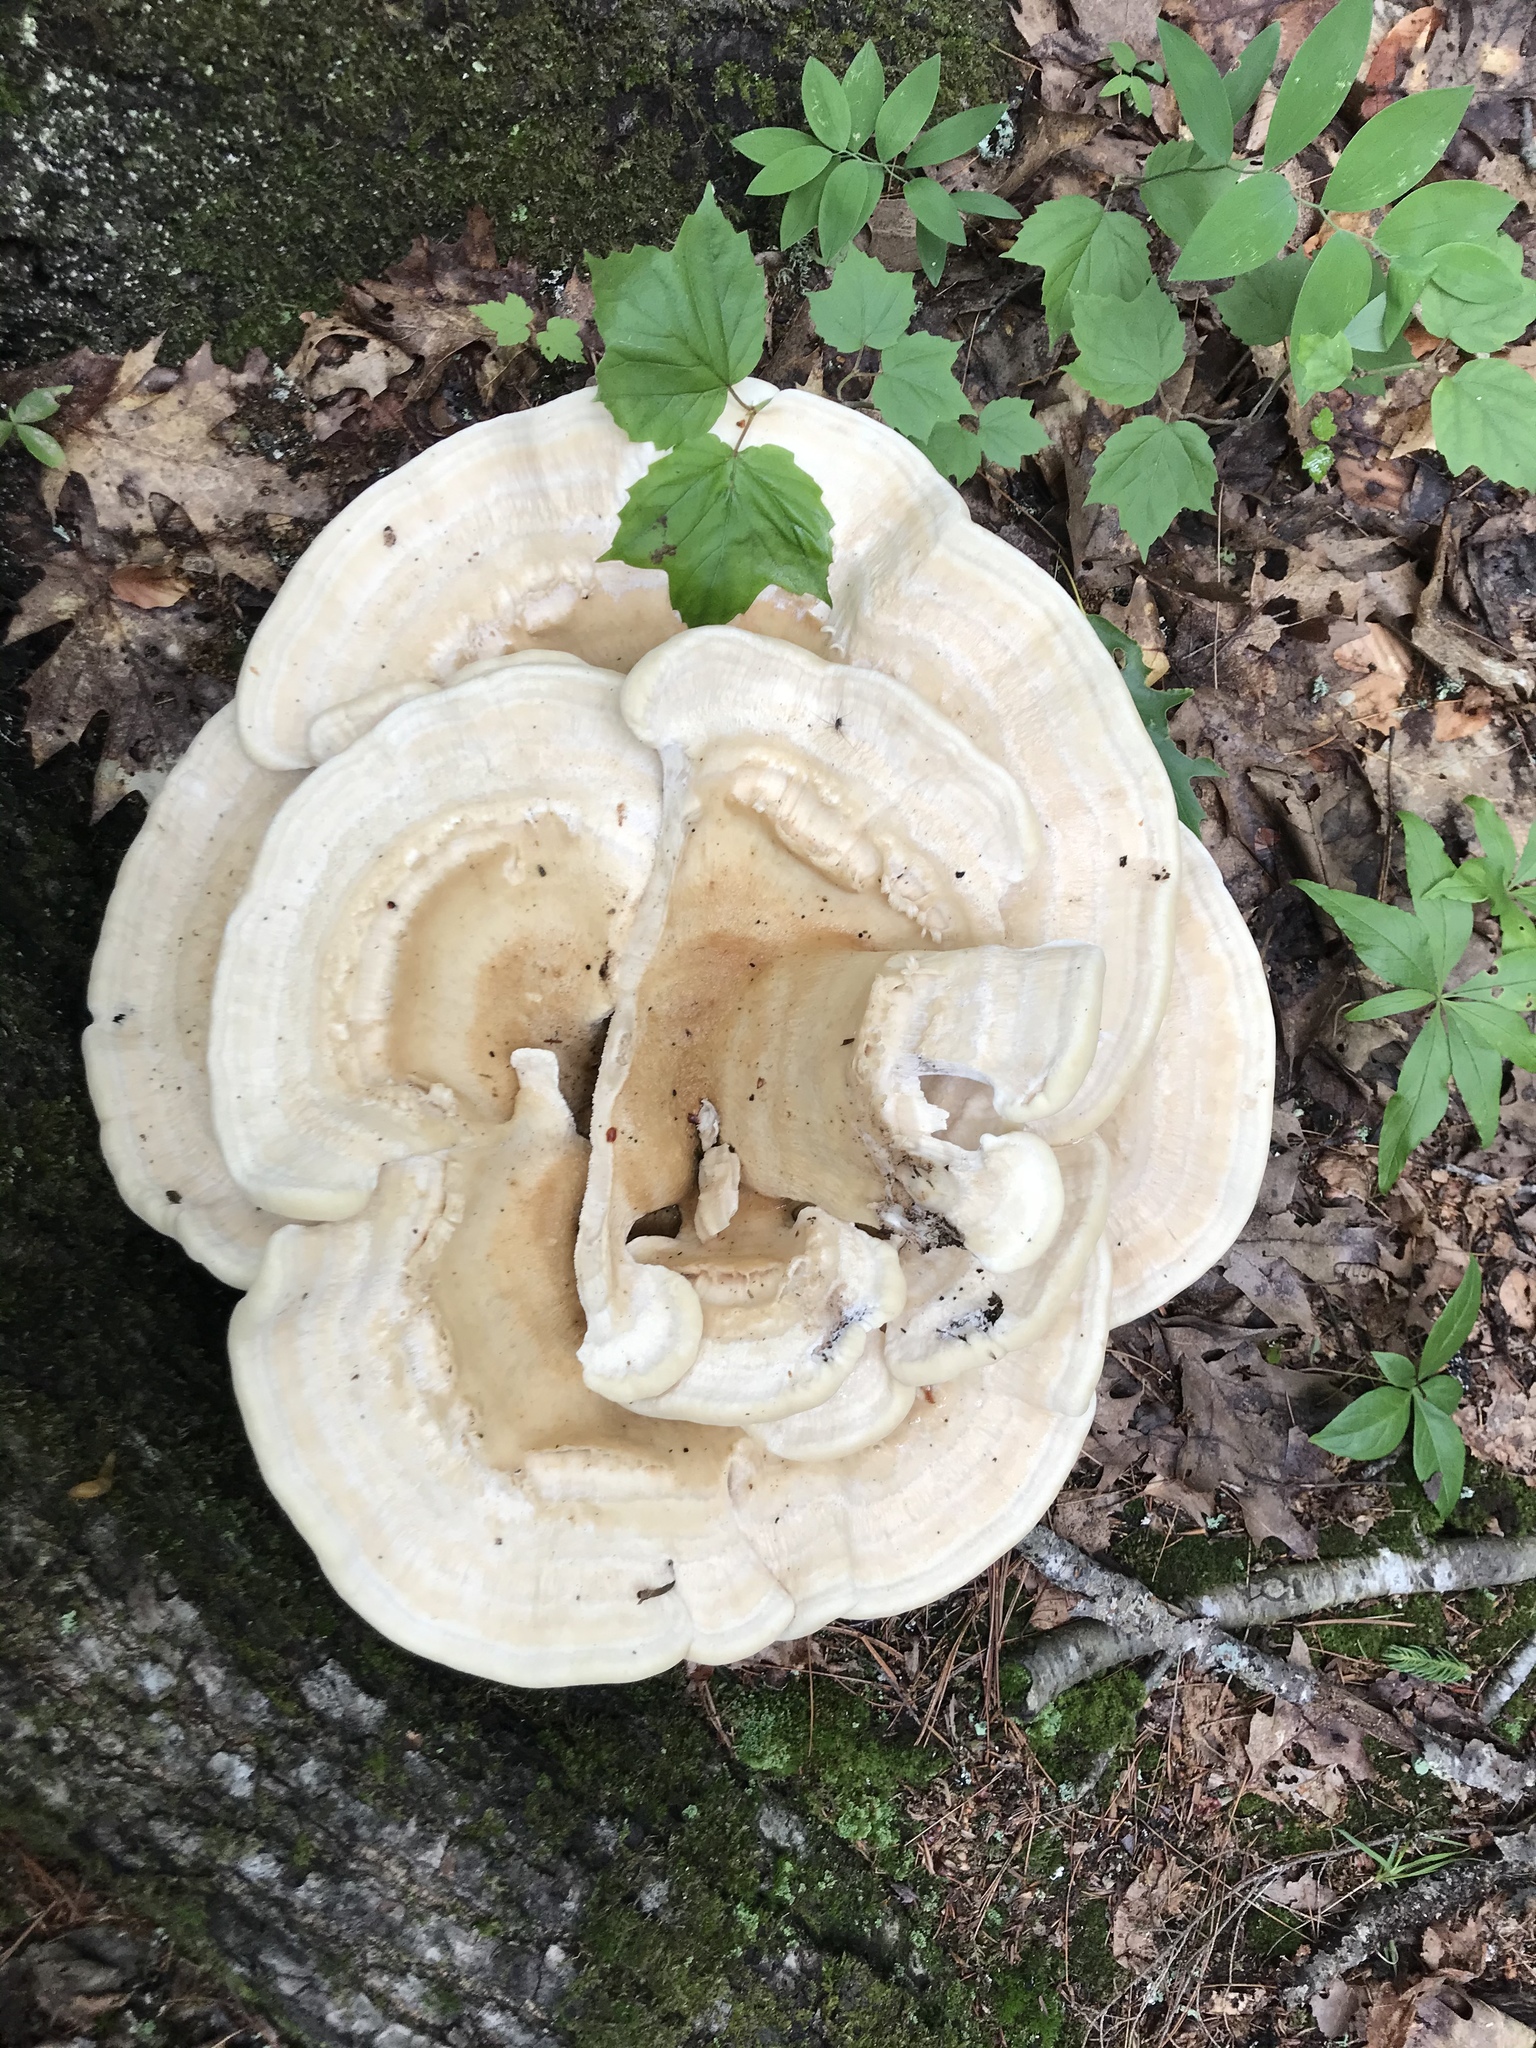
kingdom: Fungi
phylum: Basidiomycota
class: Agaricomycetes
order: Russulales
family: Bondarzewiaceae
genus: Bondarzewia
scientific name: Bondarzewia berkeleyi
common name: Berkeley's polypore
